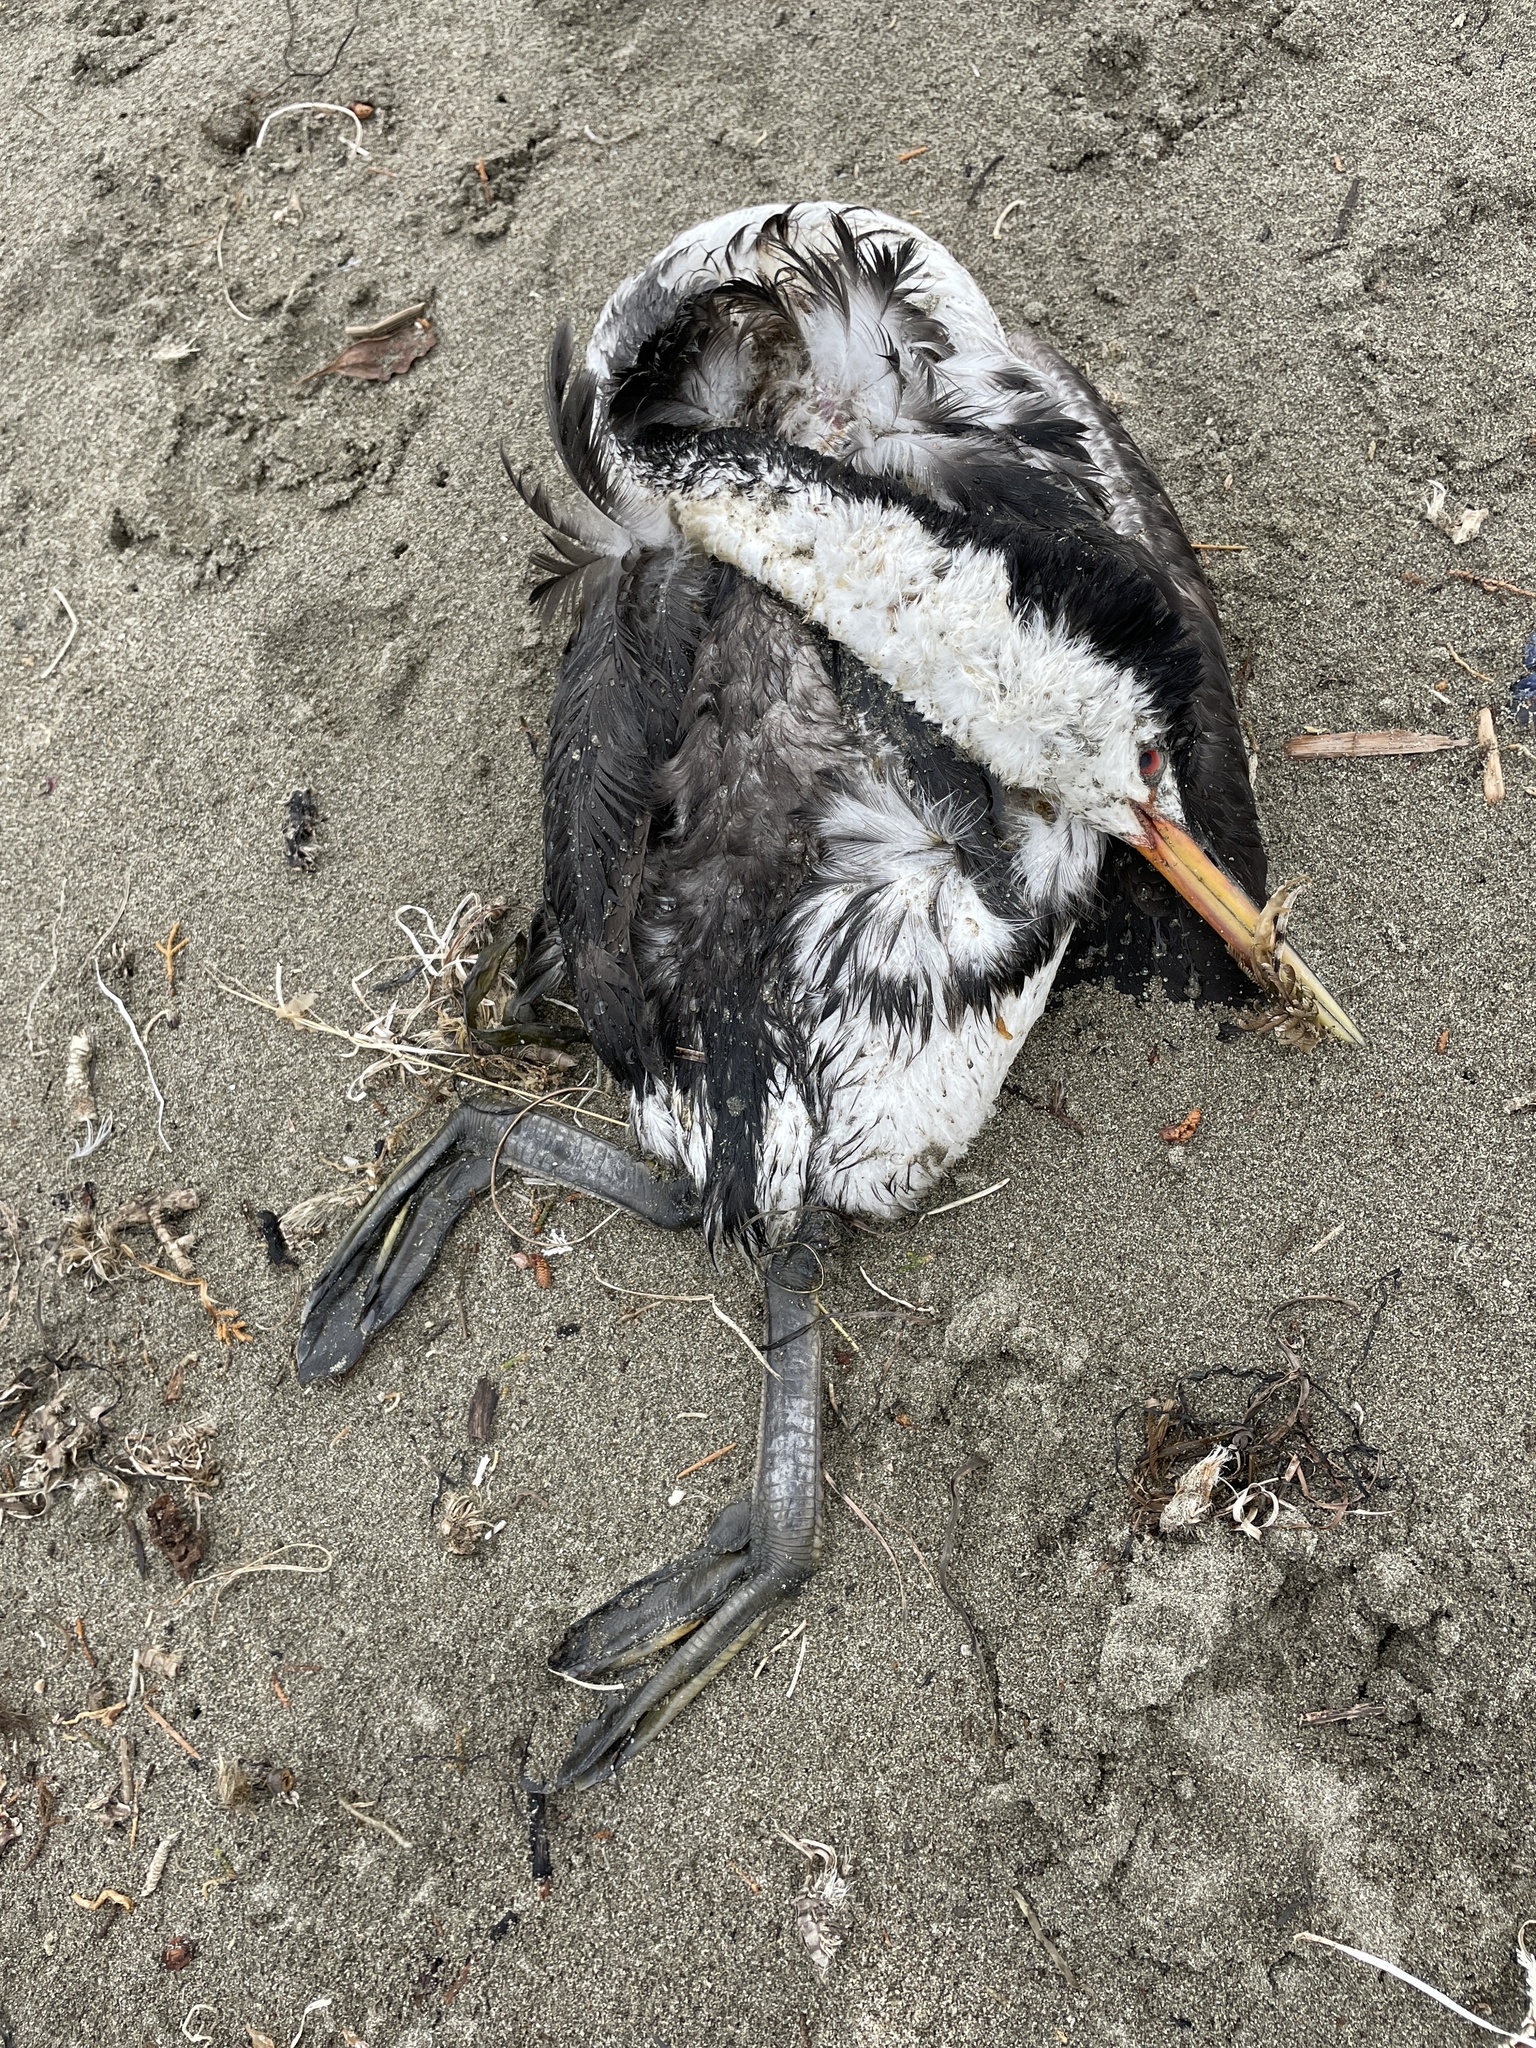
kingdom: Animalia
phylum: Chordata
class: Aves
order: Podicipediformes
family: Podicipedidae
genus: Aechmophorus
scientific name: Aechmophorus clarkii
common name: Clark's grebe
